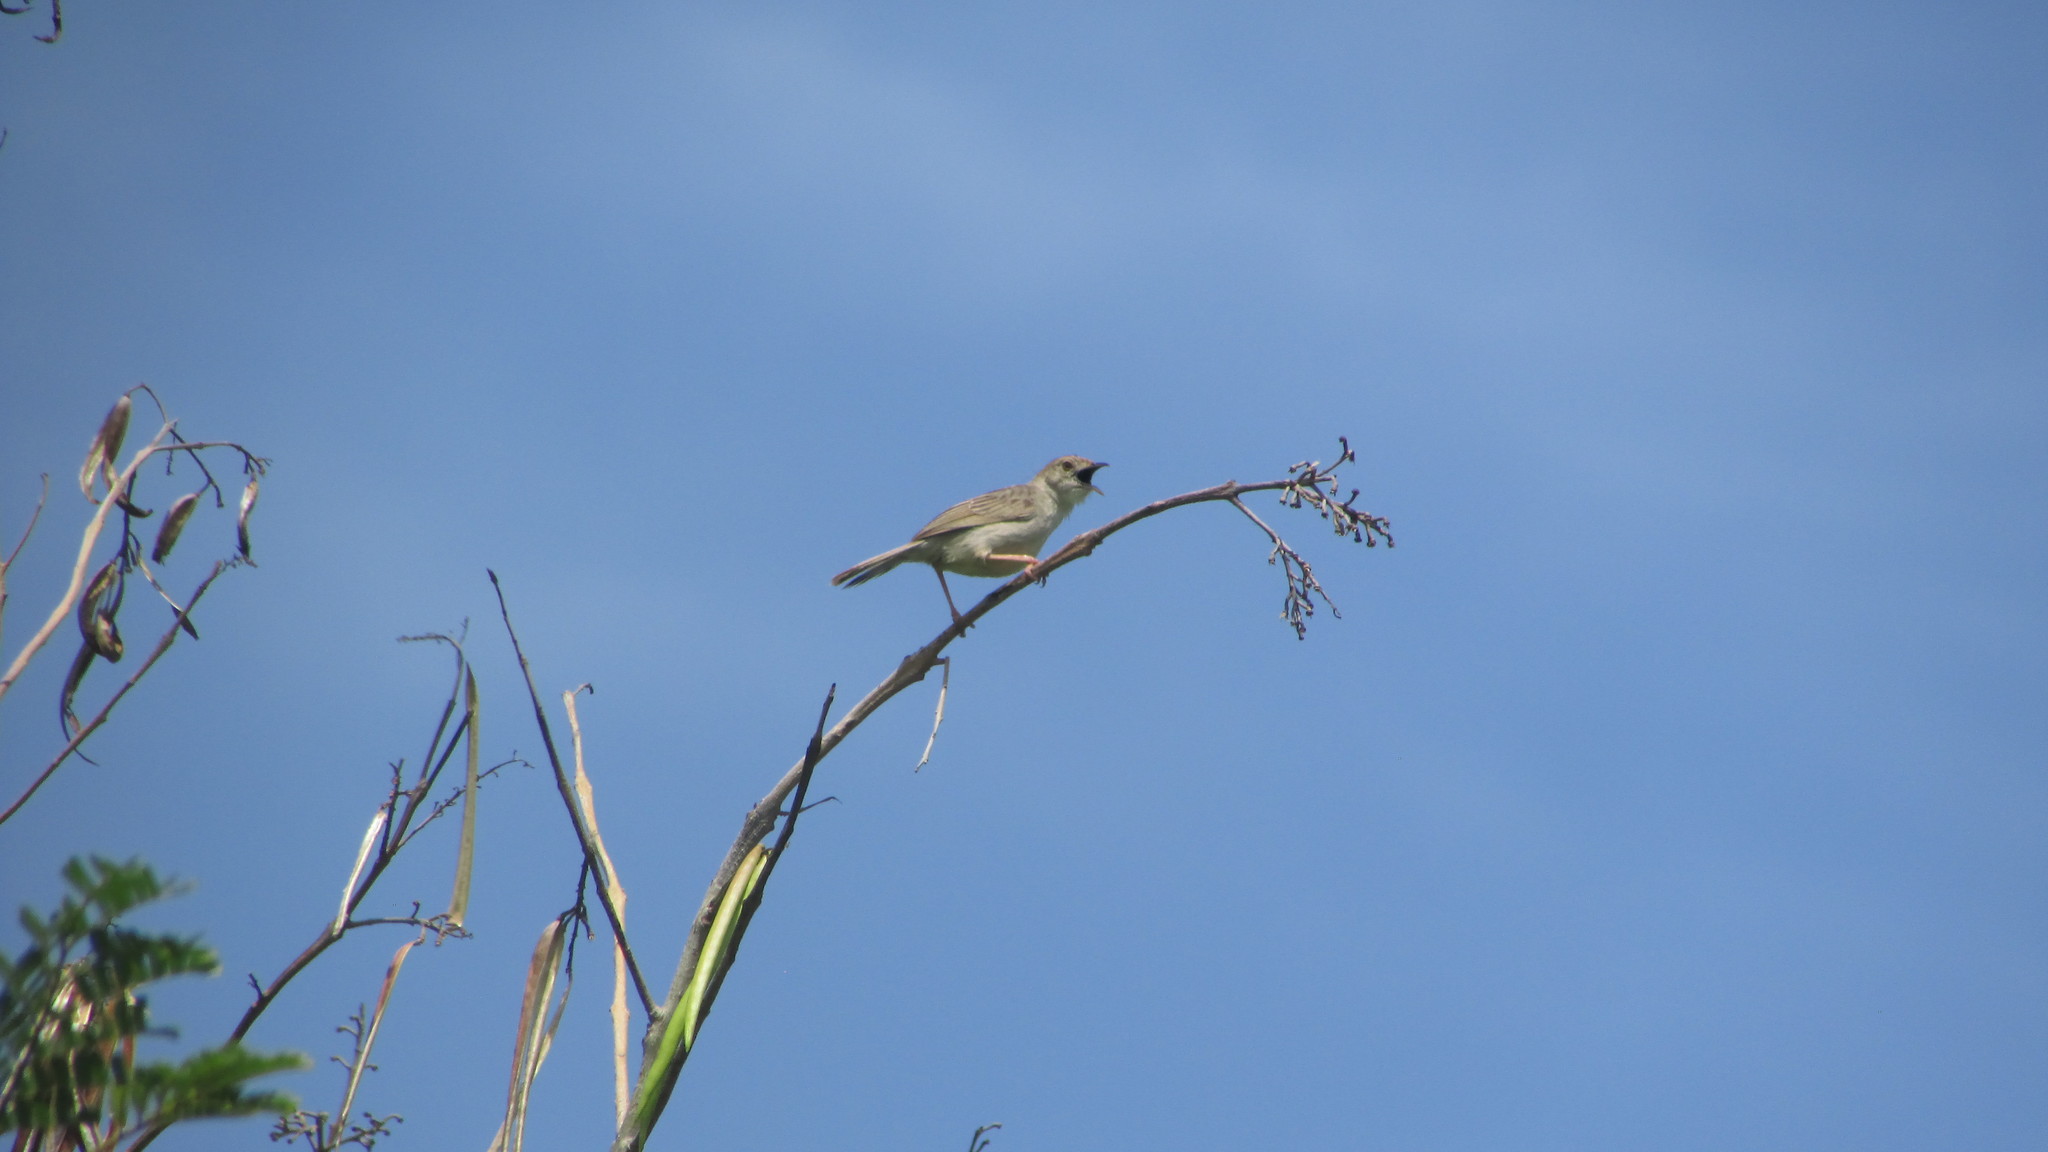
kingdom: Animalia
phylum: Chordata
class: Aves
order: Passeriformes
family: Cisticolidae
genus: Cisticola
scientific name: Cisticola chiniana
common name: Rattling cisticola
